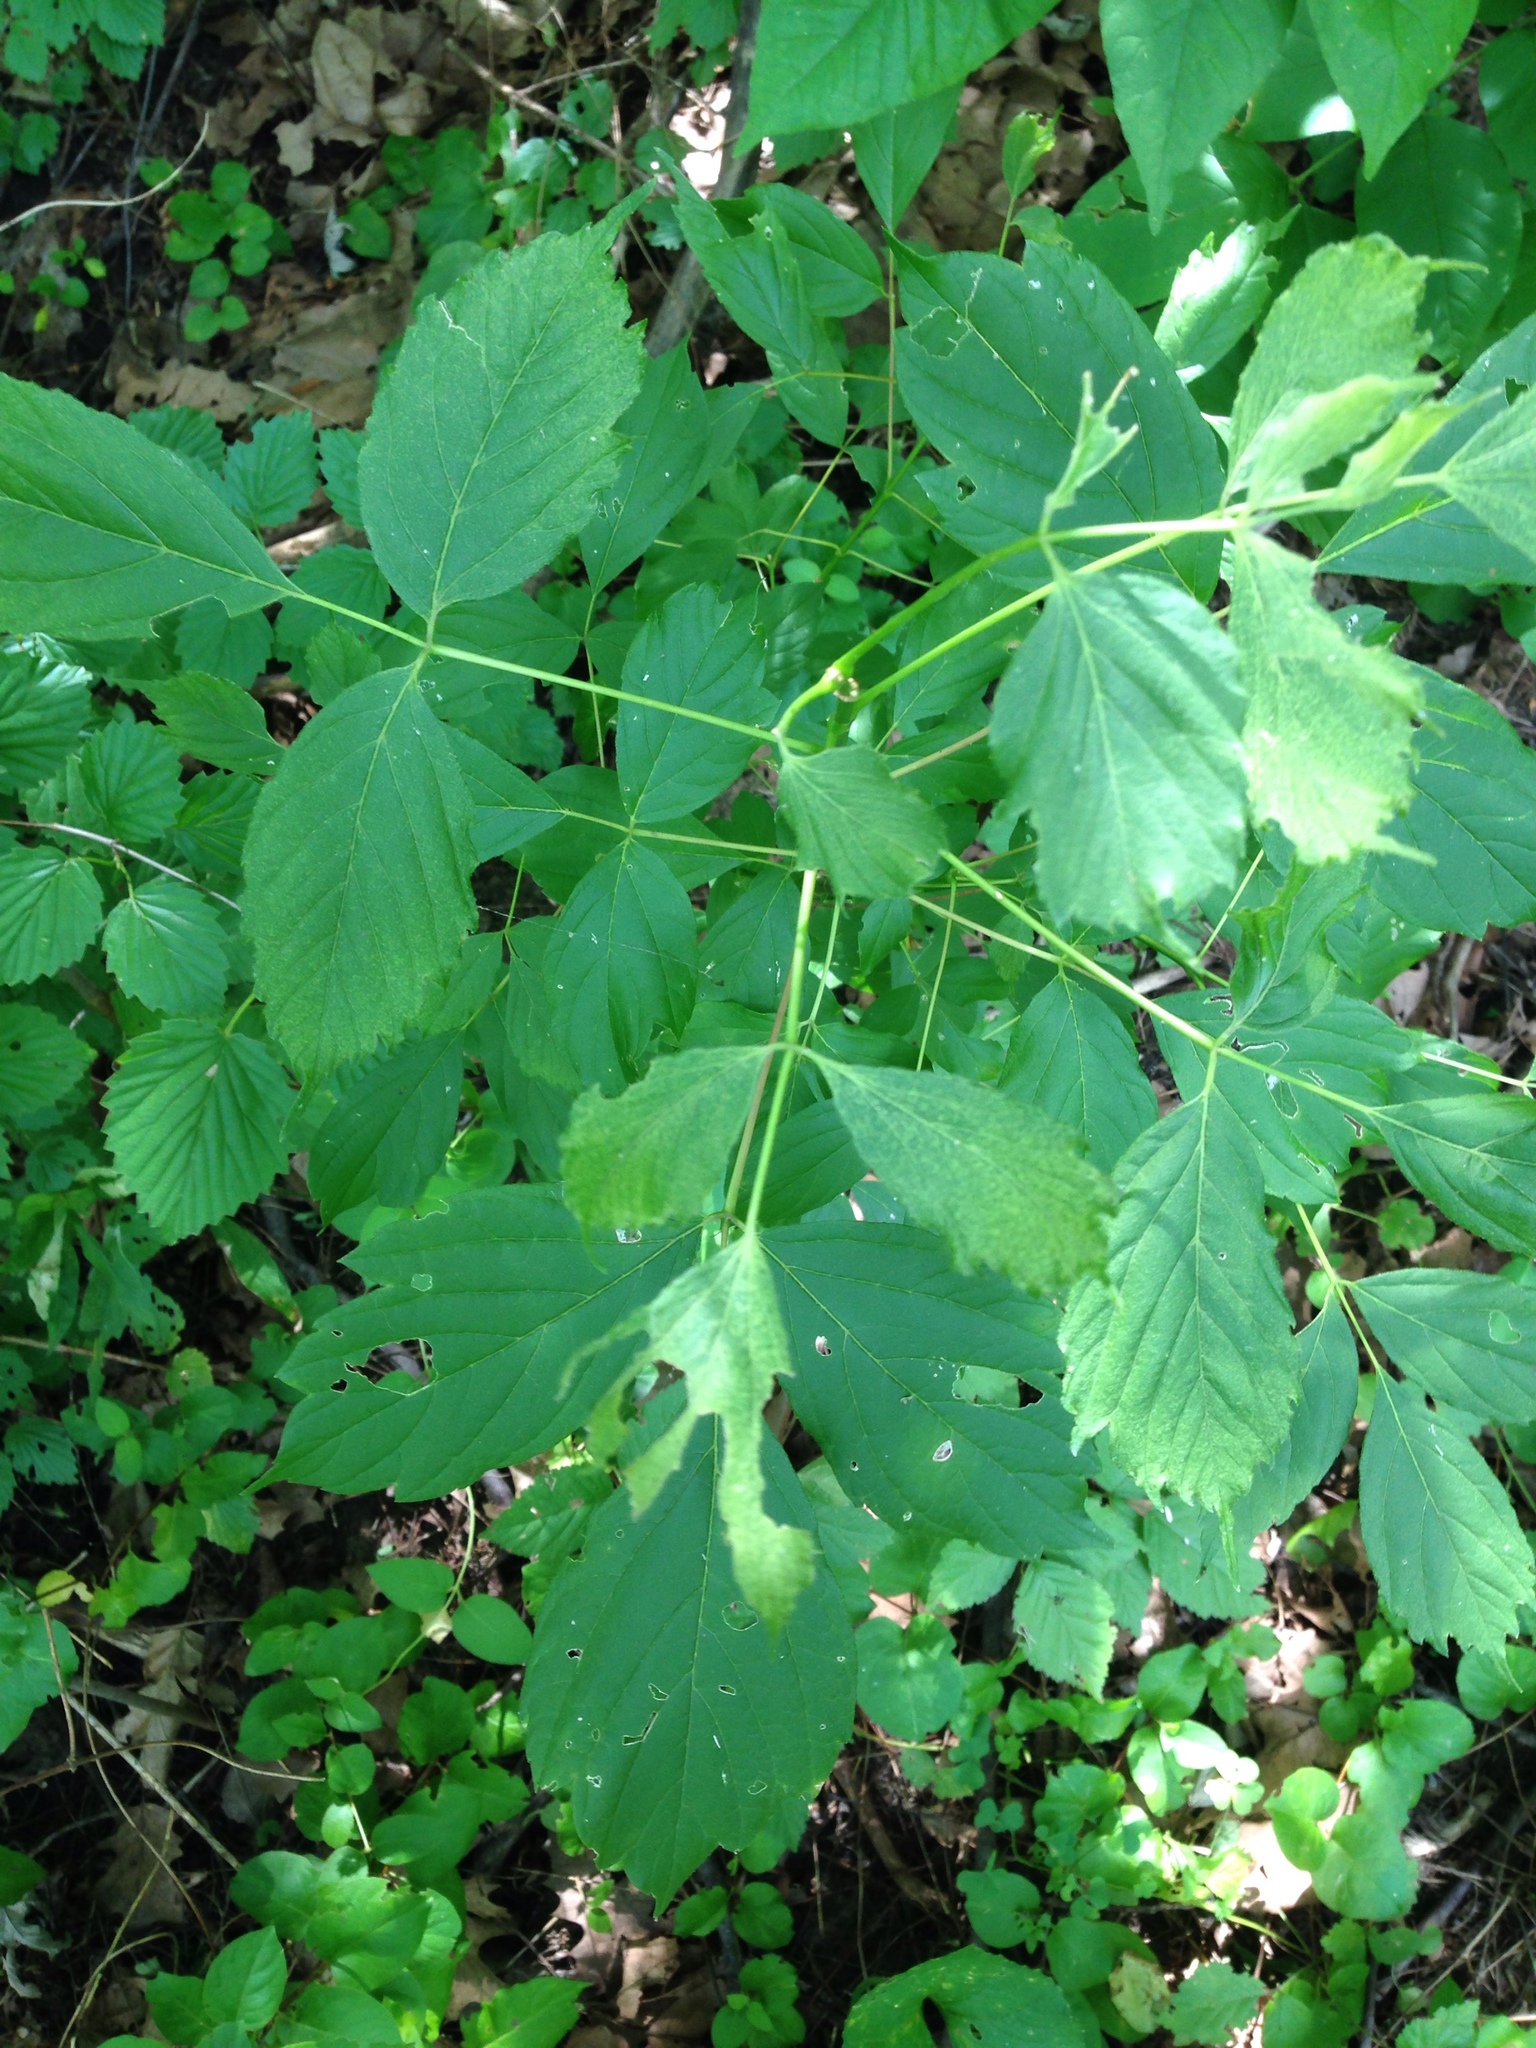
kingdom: Plantae
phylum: Tracheophyta
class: Magnoliopsida
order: Sapindales
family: Sapindaceae
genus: Acer
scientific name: Acer negundo
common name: Ashleaf maple
